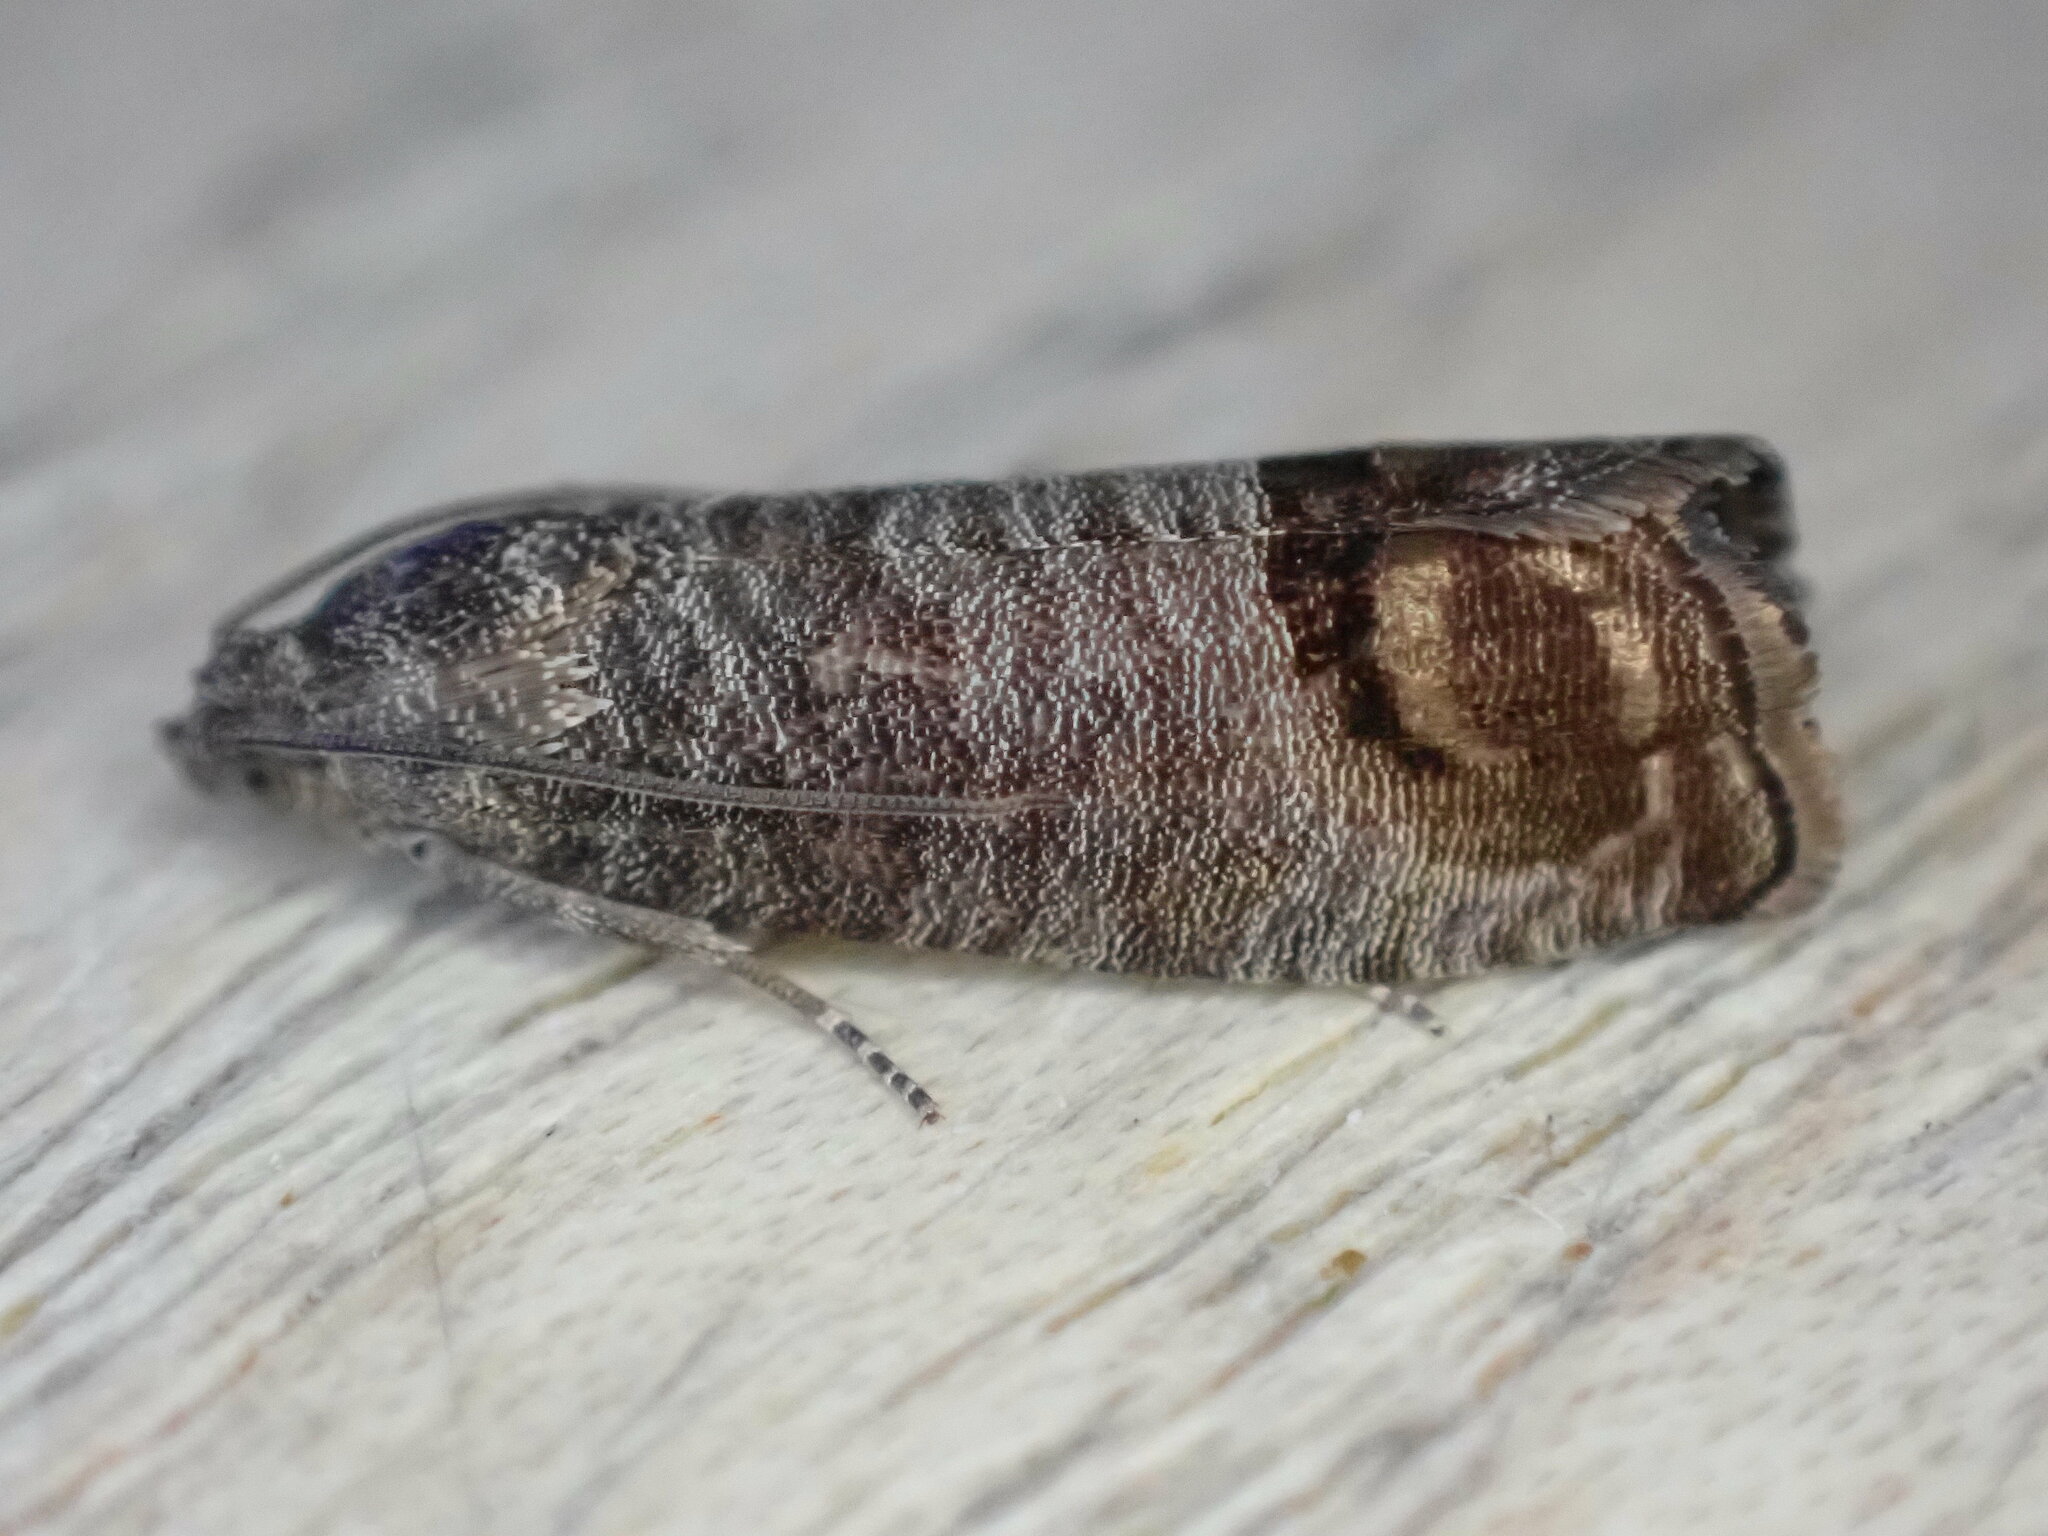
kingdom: Animalia
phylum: Arthropoda
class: Insecta
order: Lepidoptera
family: Tortricidae
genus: Cydia
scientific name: Cydia pomonella
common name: Codling moth
